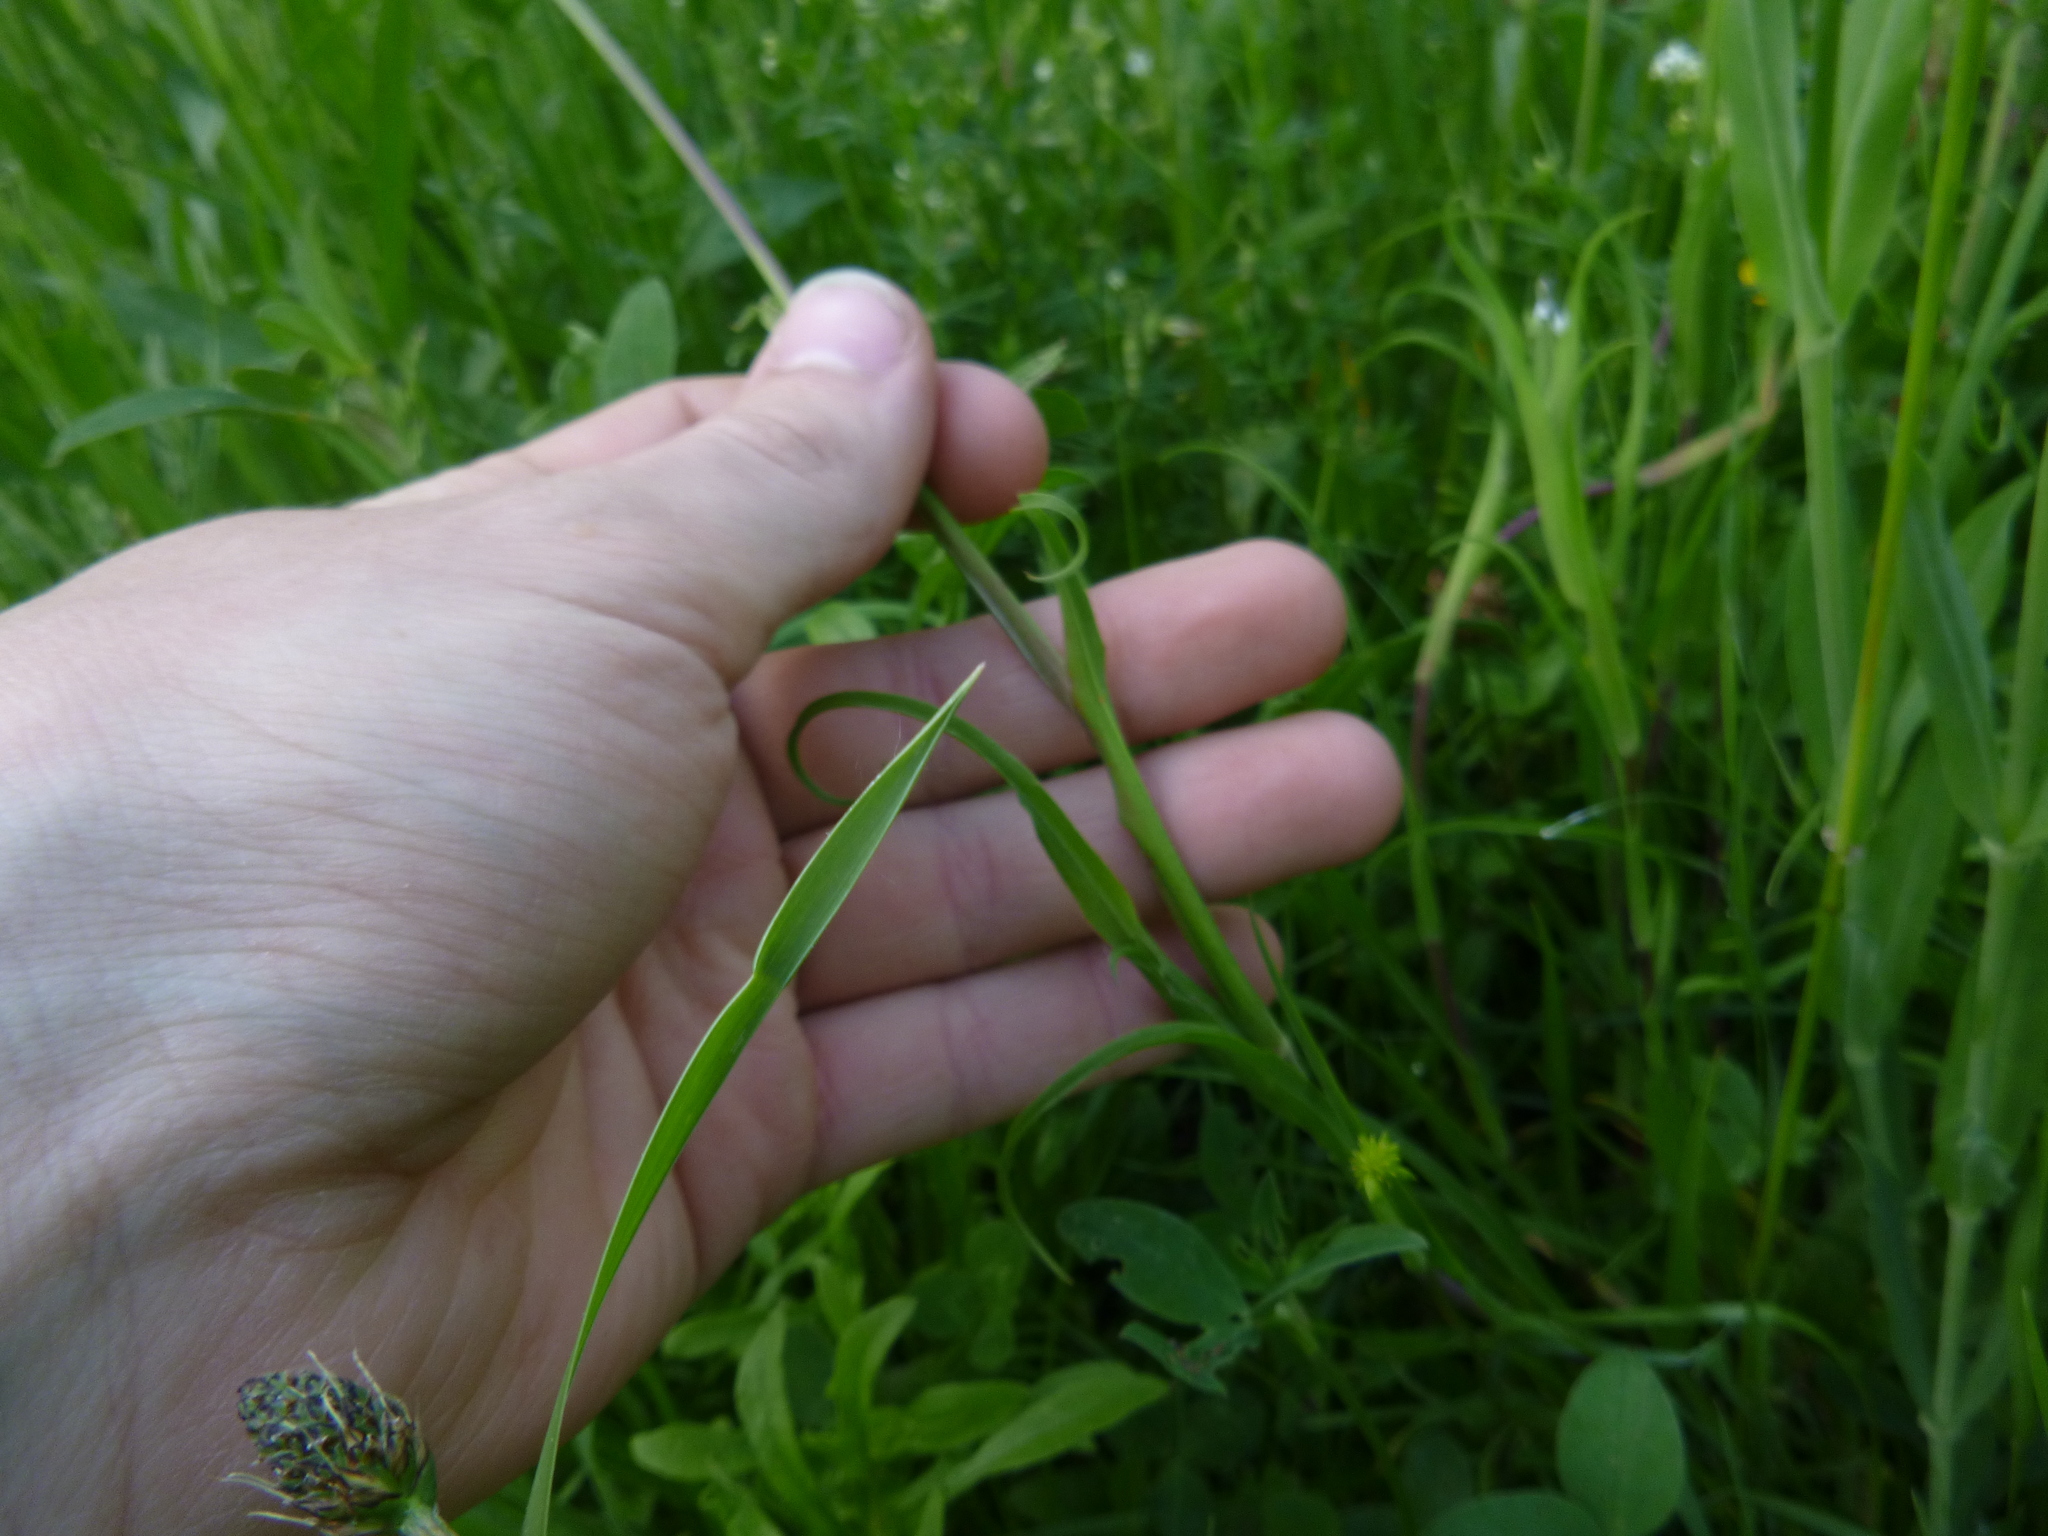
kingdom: Plantae
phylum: Tracheophyta
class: Magnoliopsida
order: Asterales
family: Asteraceae
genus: Tragopogon
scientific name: Tragopogon orientalis
